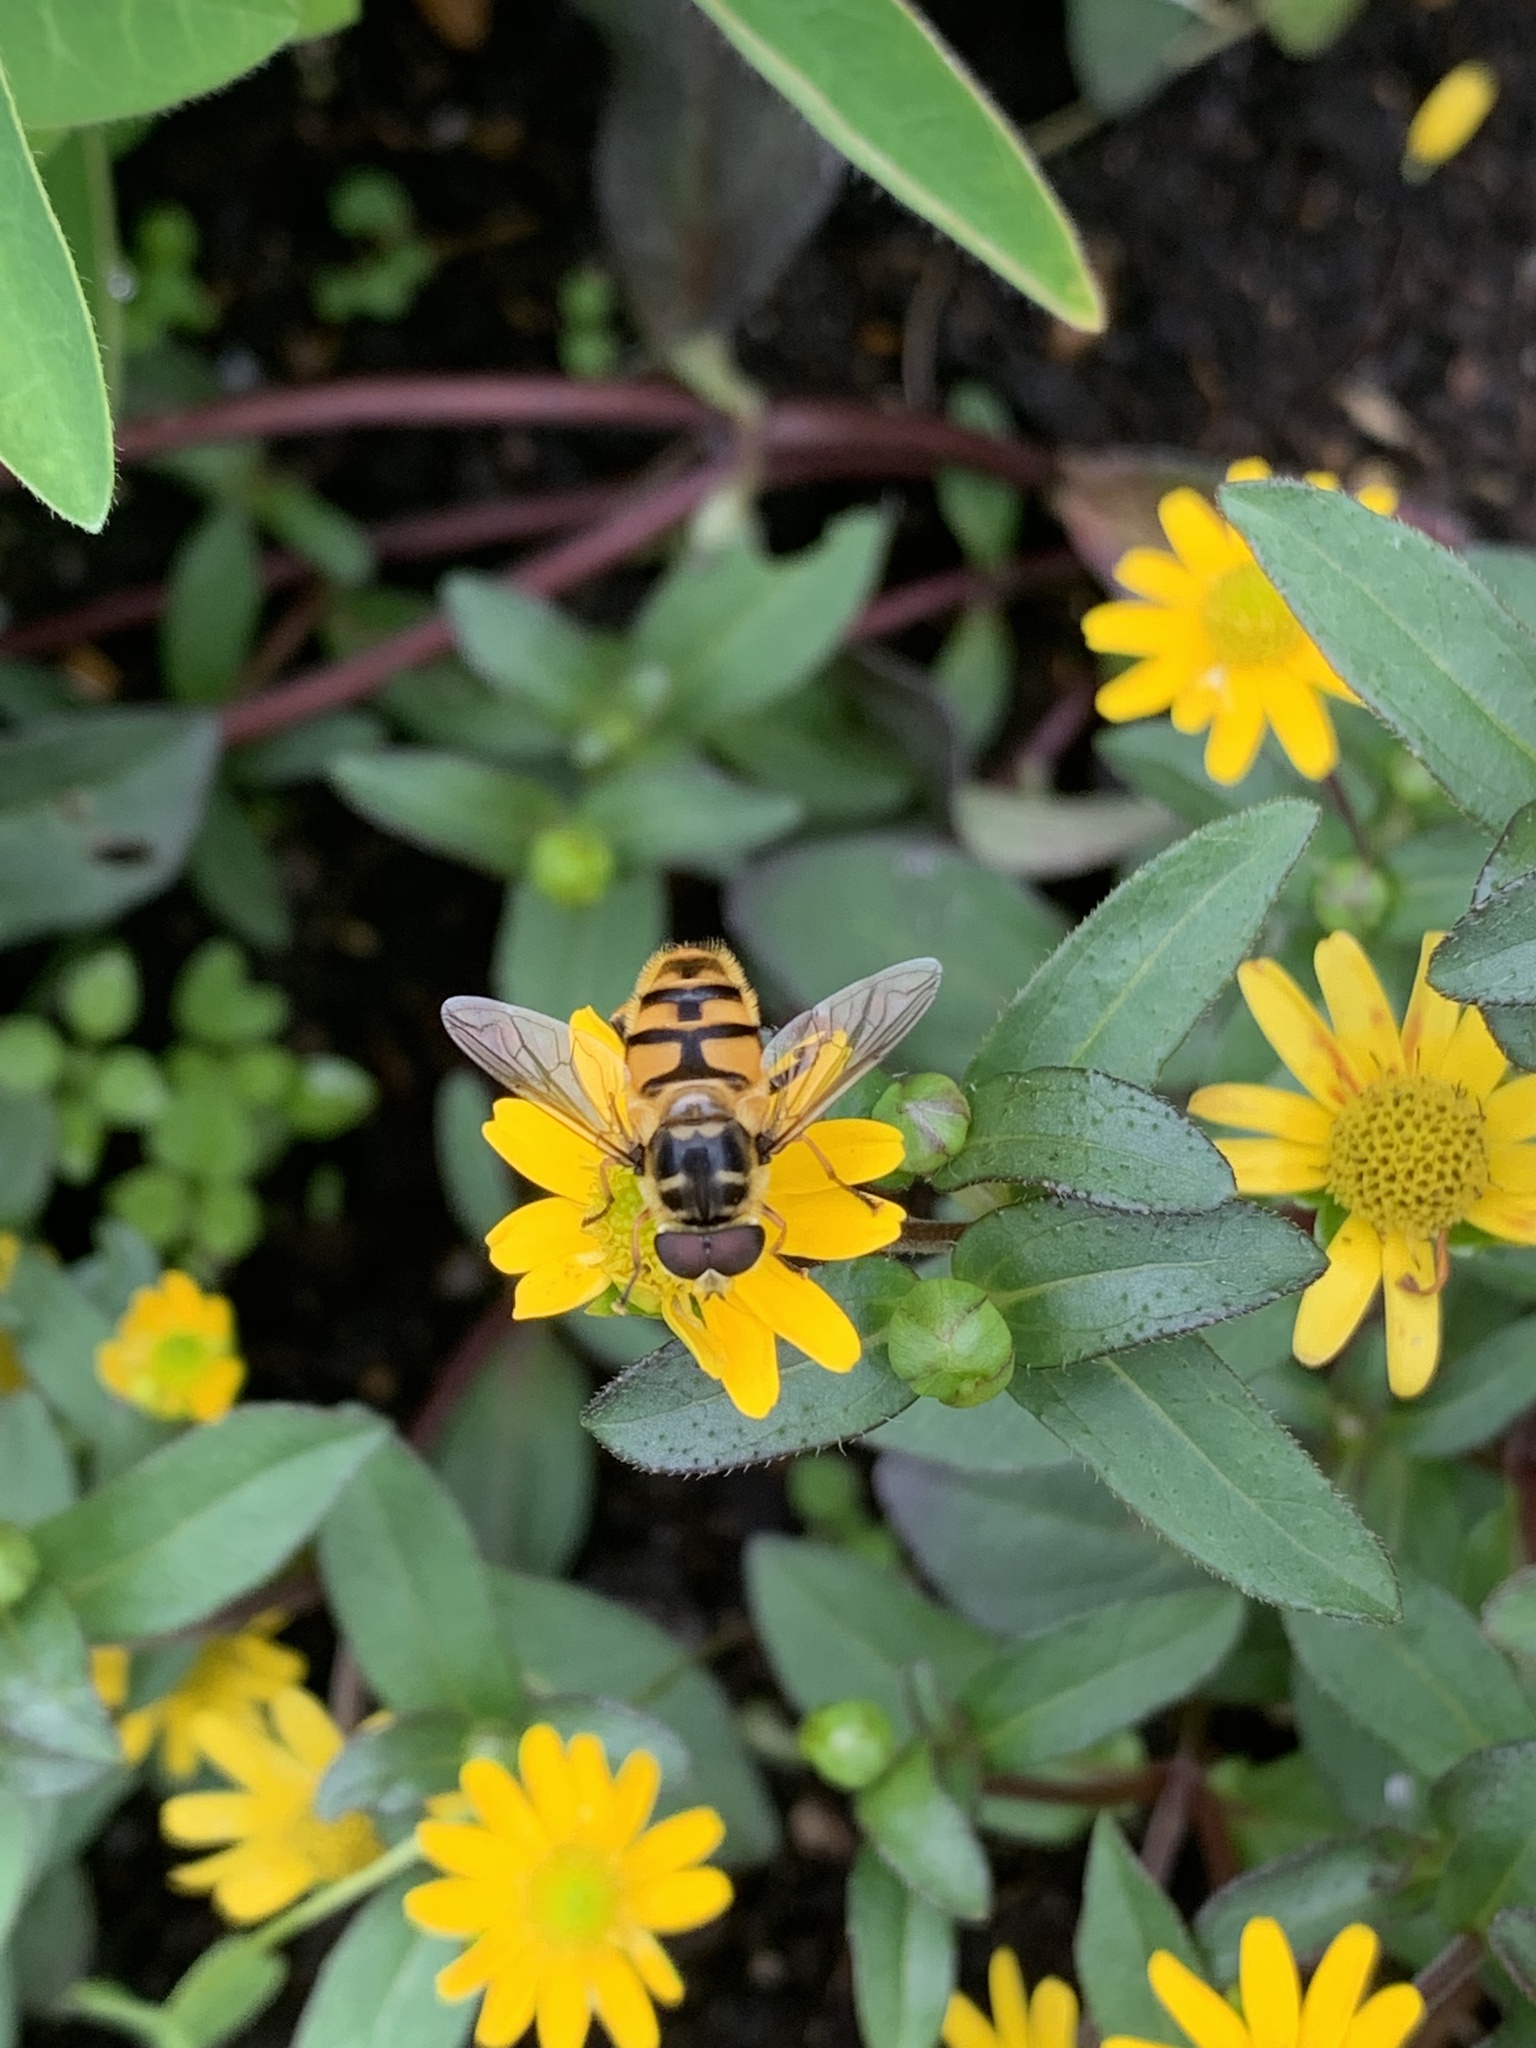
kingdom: Animalia
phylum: Arthropoda
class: Insecta
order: Diptera
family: Syrphidae
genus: Myathropa
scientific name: Myathropa florea
